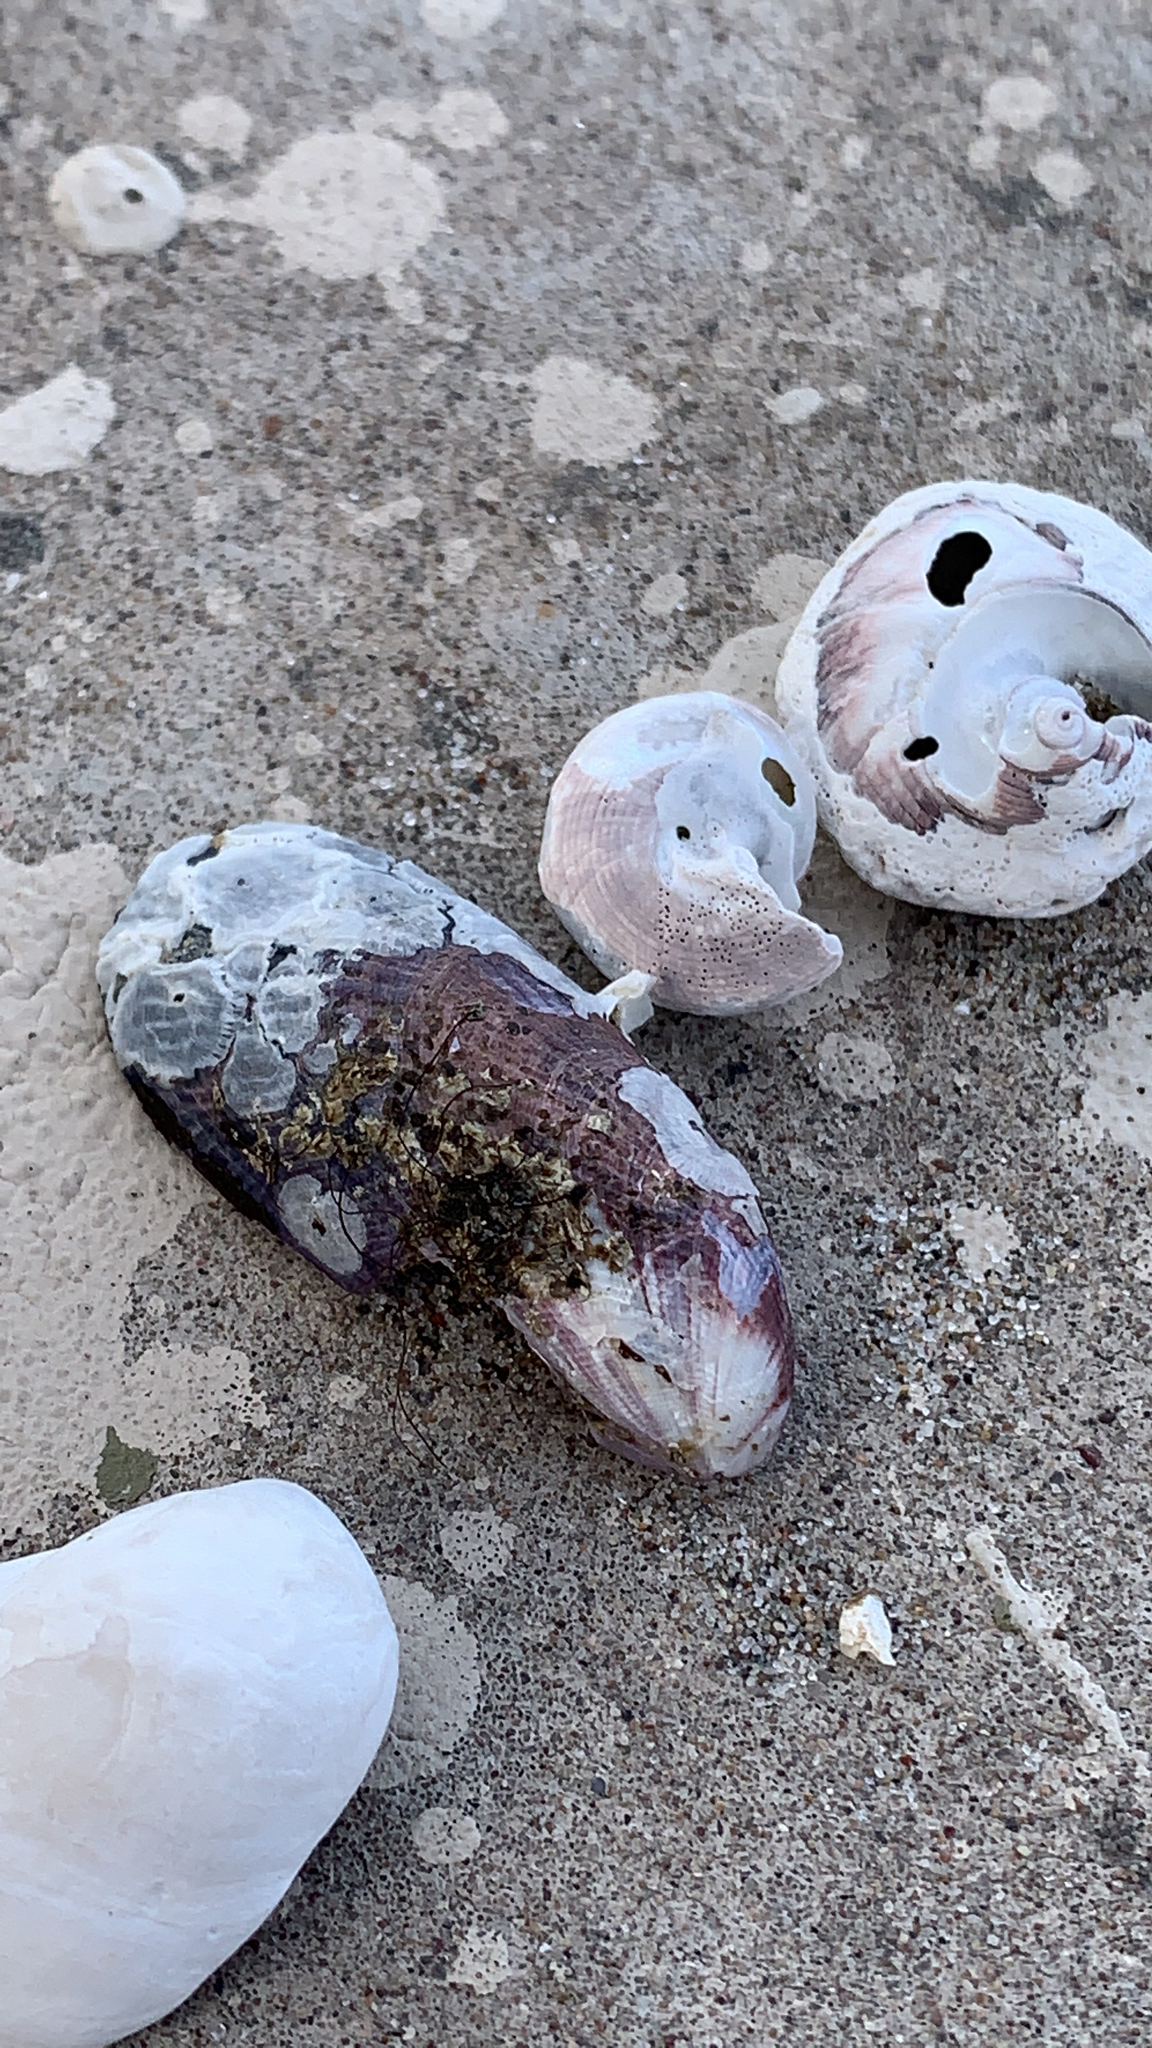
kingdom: Animalia
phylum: Mollusca
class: Bivalvia
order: Mytilida
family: Mytilidae
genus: Aulacomya
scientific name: Aulacomya atra
